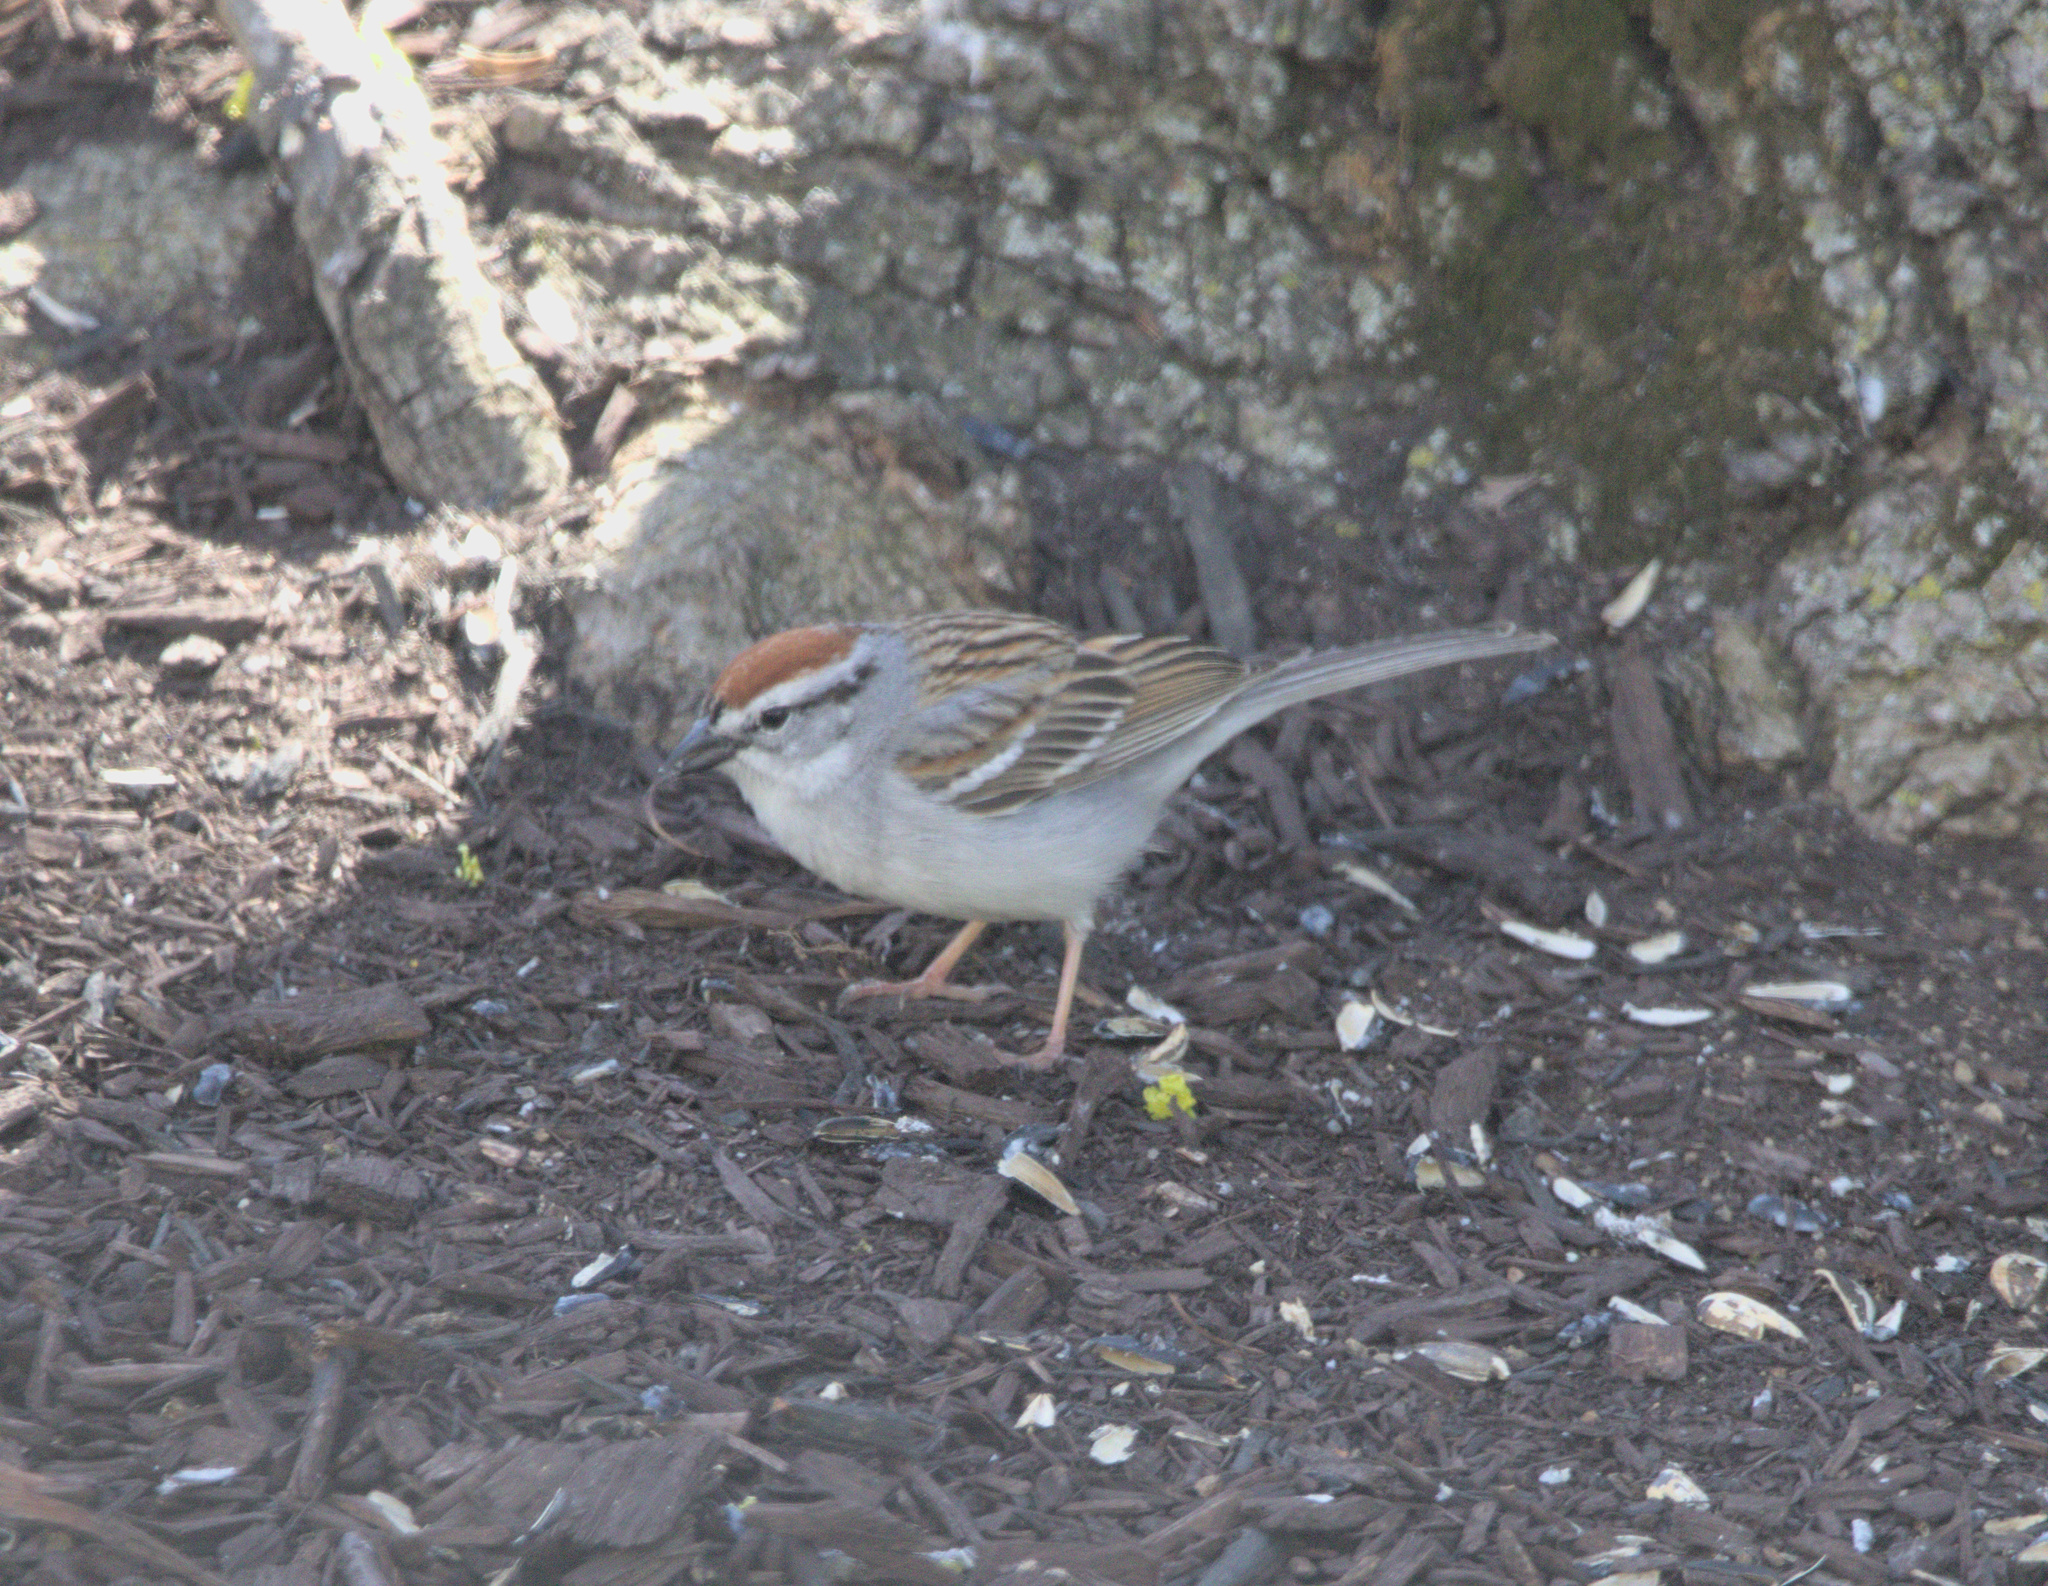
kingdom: Animalia
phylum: Chordata
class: Aves
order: Passeriformes
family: Passerellidae
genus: Spizella
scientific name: Spizella passerina
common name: Chipping sparrow
